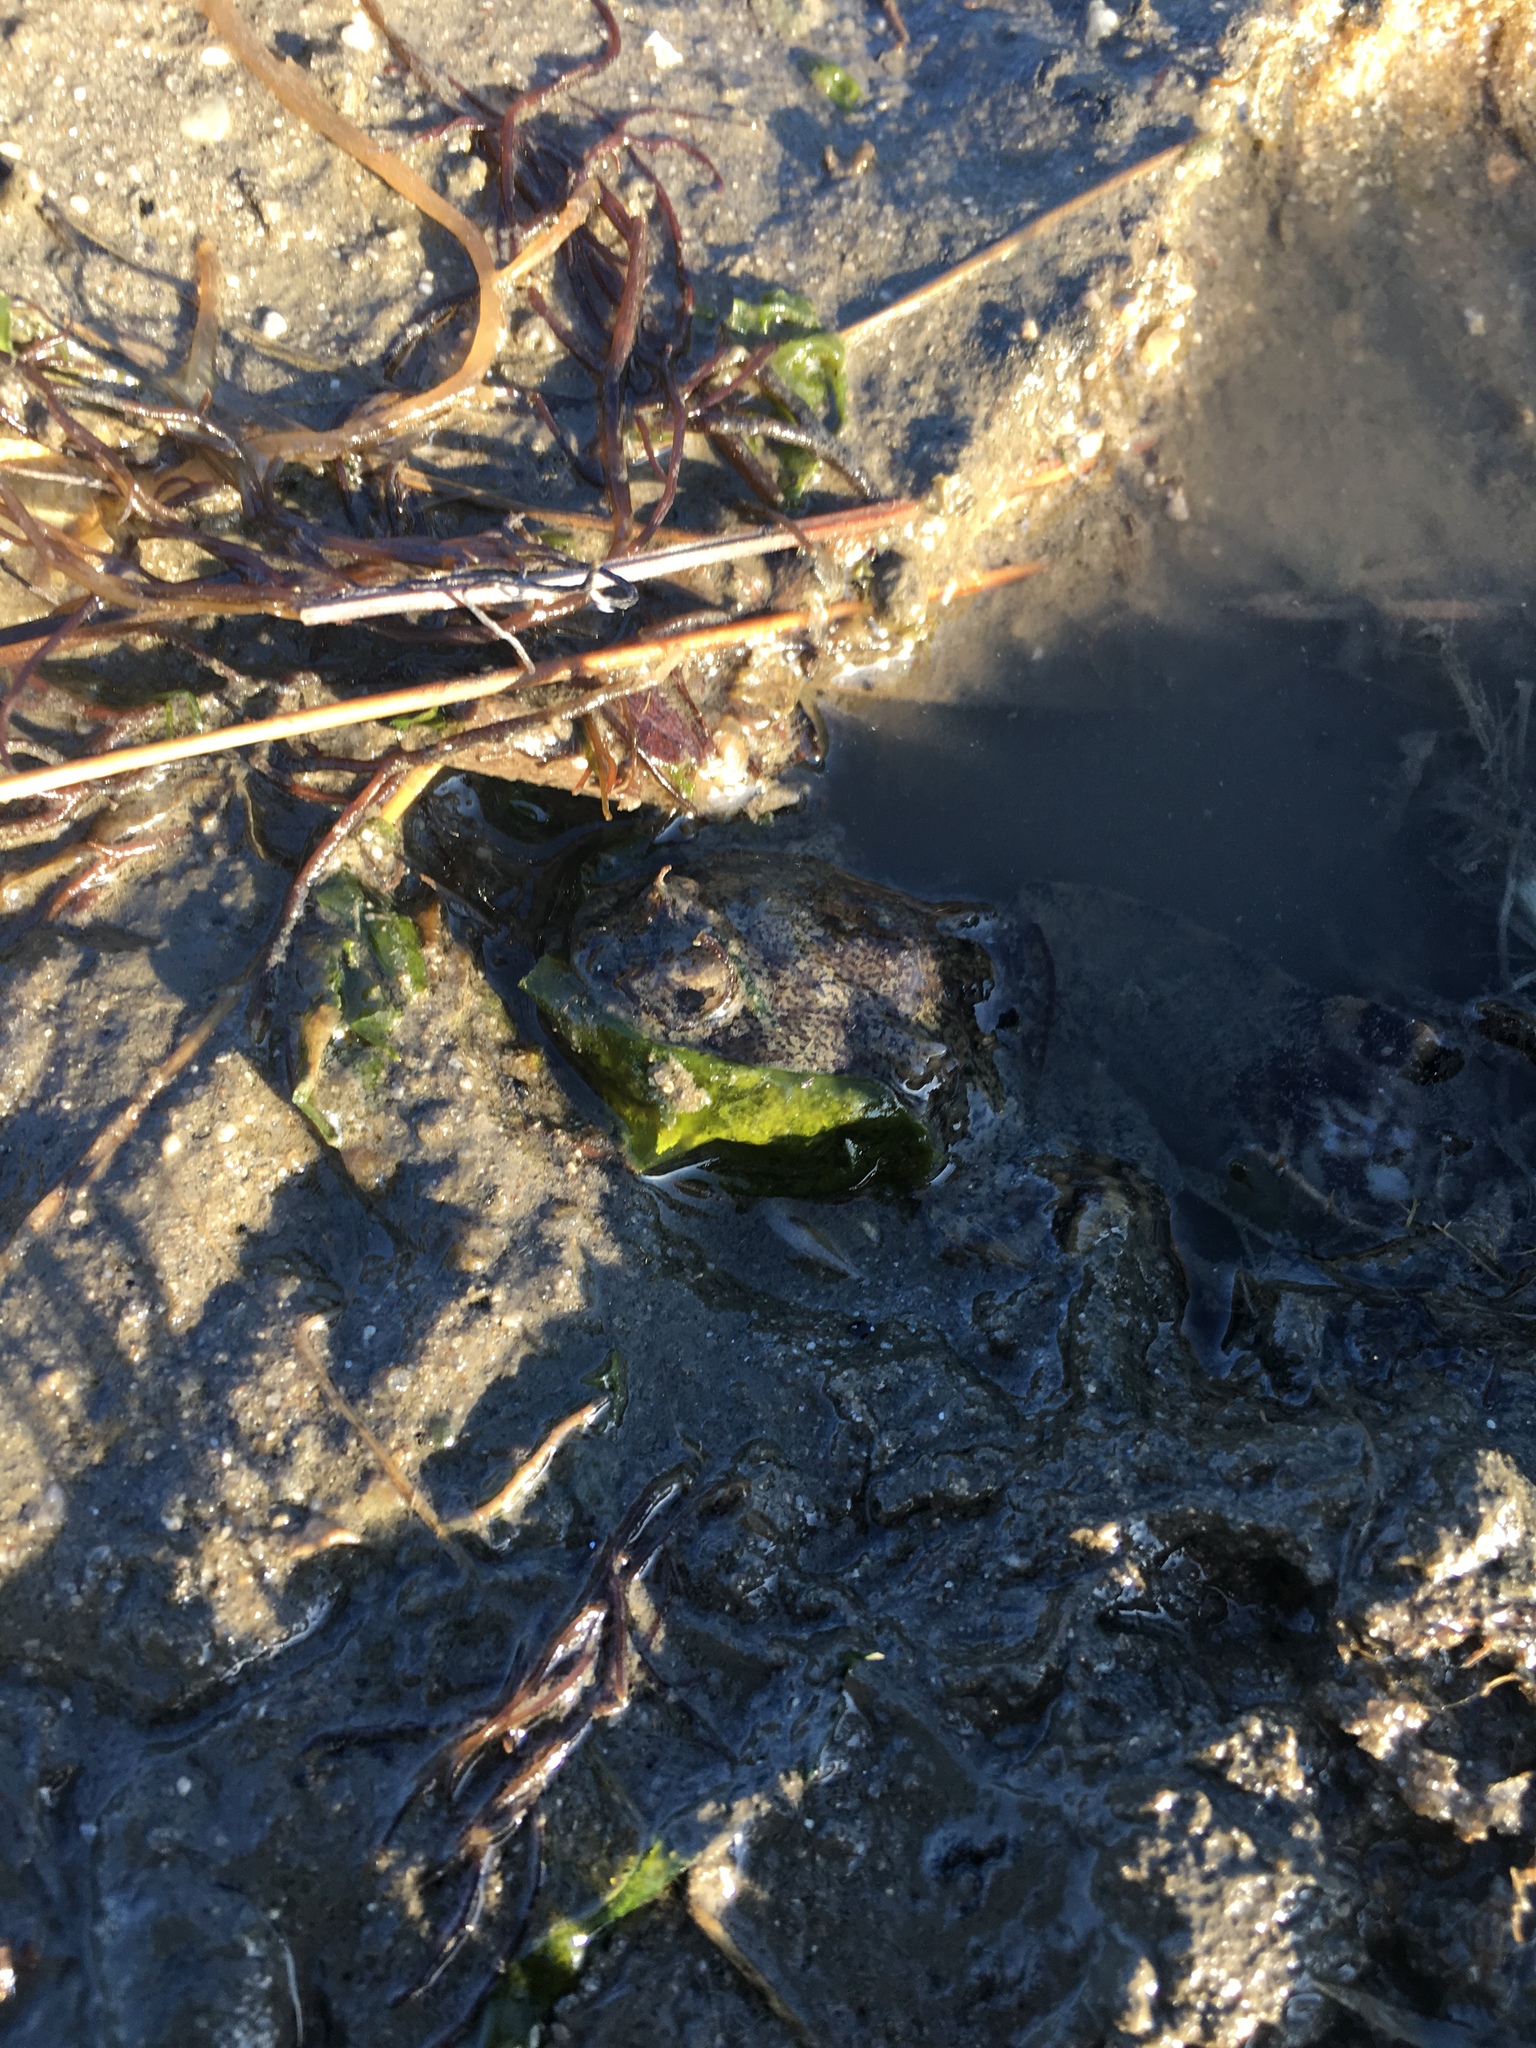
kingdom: Animalia
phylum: Chordata
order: Batrachoidiformes
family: Batrachoididae
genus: Opsanus
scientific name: Opsanus tau
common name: Oyster toadfish
